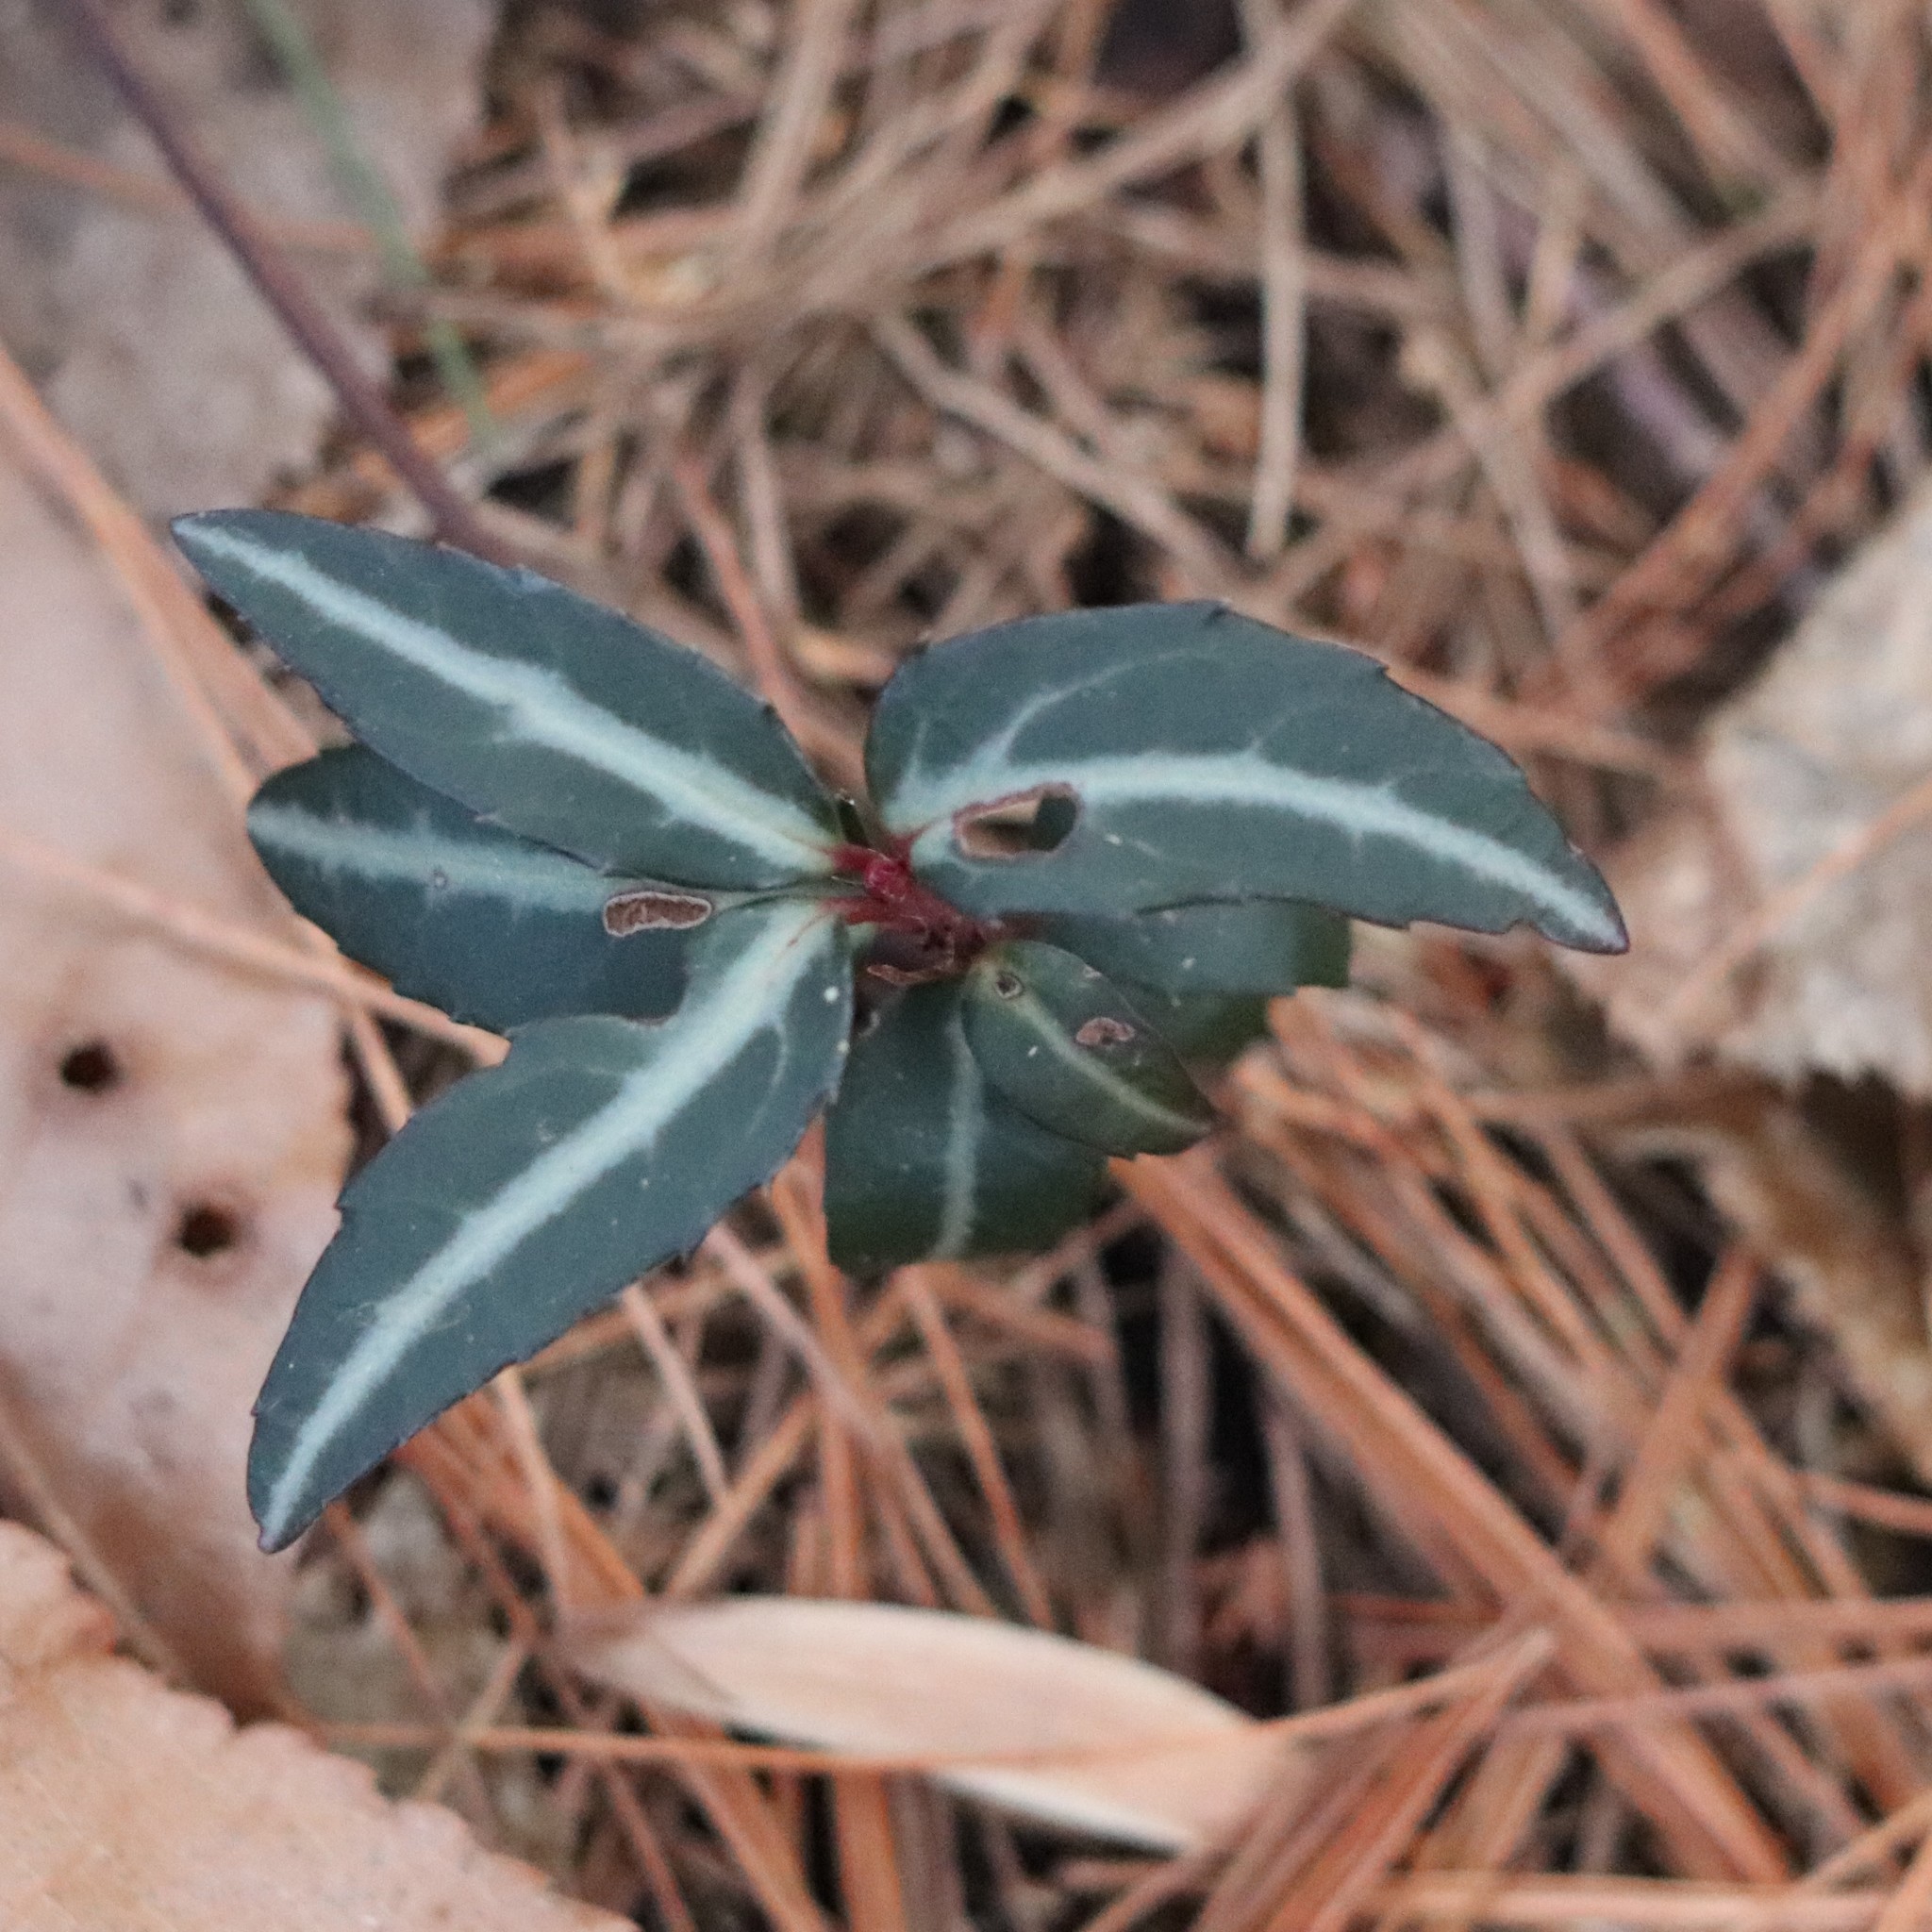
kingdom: Plantae
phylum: Tracheophyta
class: Magnoliopsida
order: Ericales
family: Ericaceae
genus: Chimaphila
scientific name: Chimaphila maculata
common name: Spotted pipsissewa
